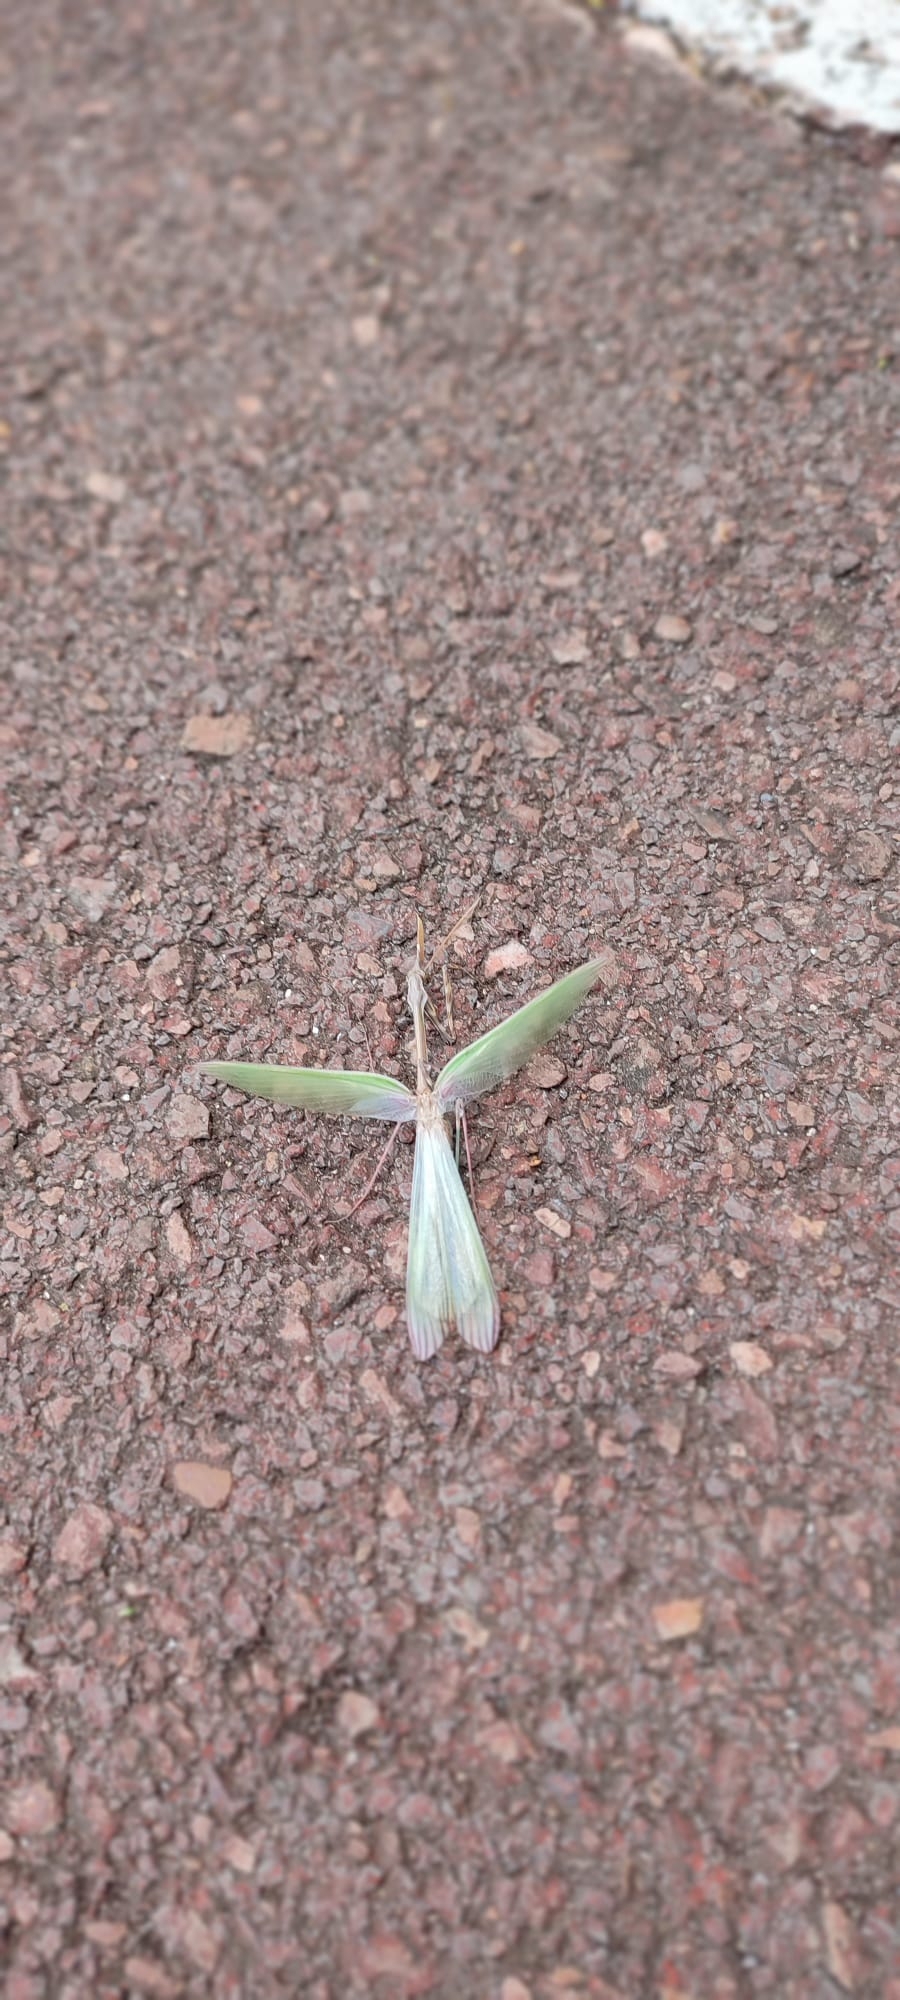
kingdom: Animalia
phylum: Arthropoda
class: Insecta
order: Mantodea
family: Empusidae
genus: Empusa
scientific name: Empusa pennata
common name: Conehead mantis
